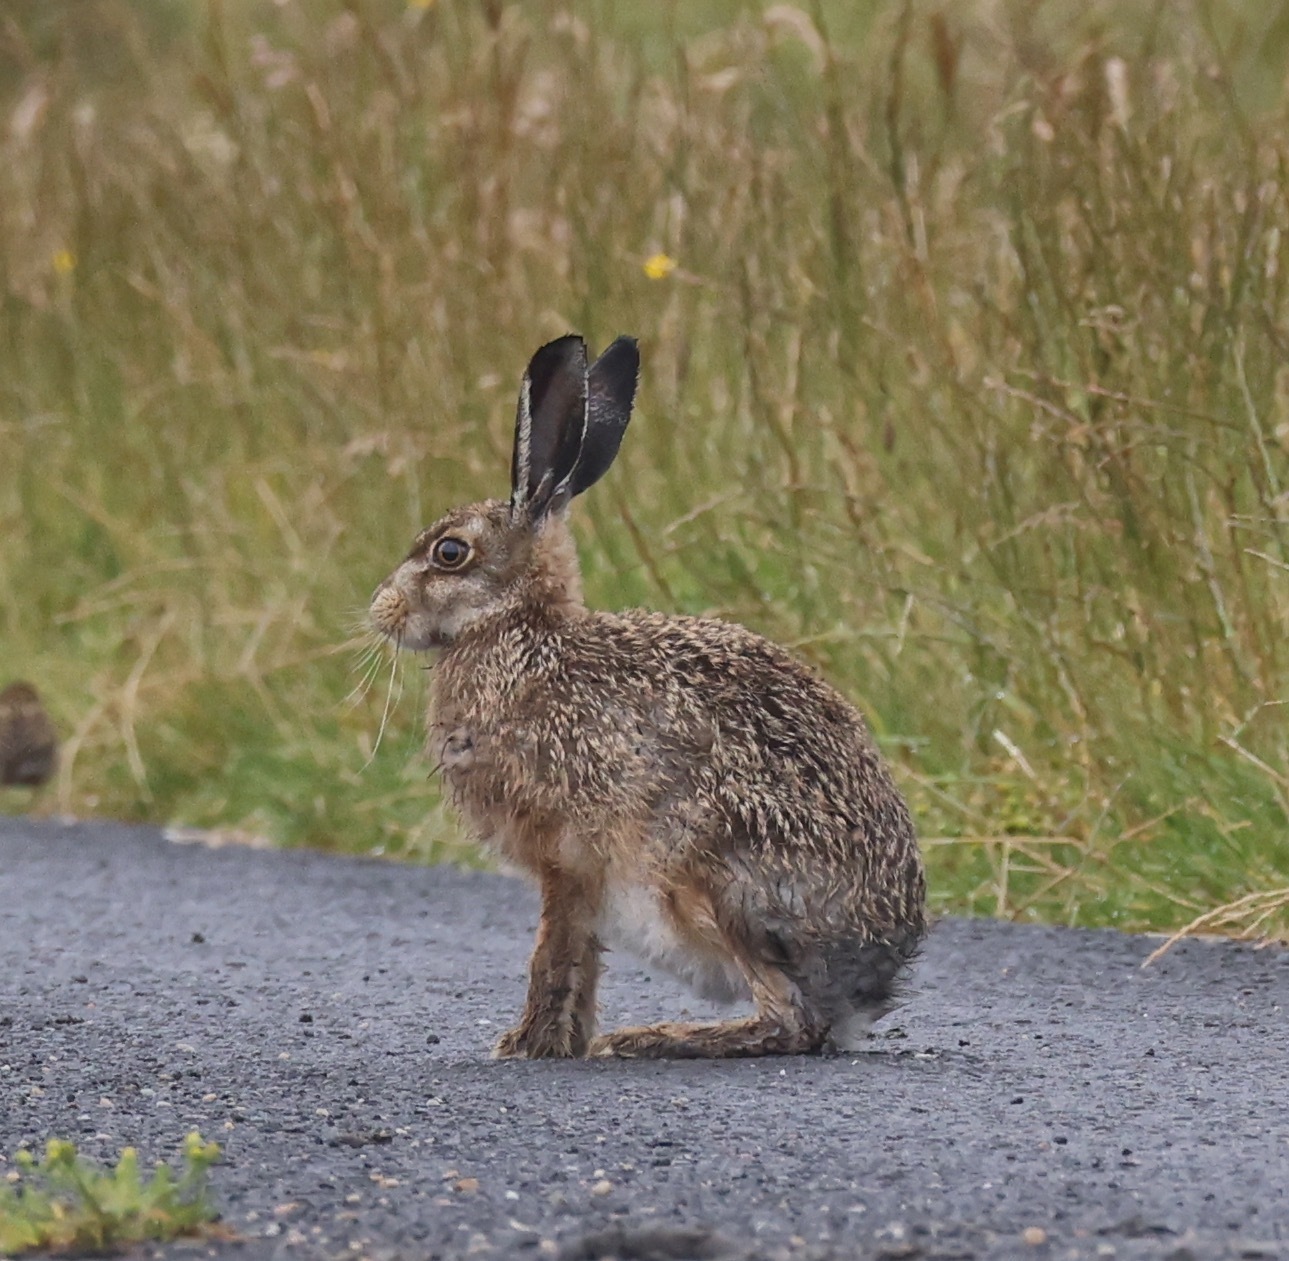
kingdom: Animalia
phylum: Chordata
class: Mammalia
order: Lagomorpha
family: Leporidae
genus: Lepus
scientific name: Lepus europaeus
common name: European hare
